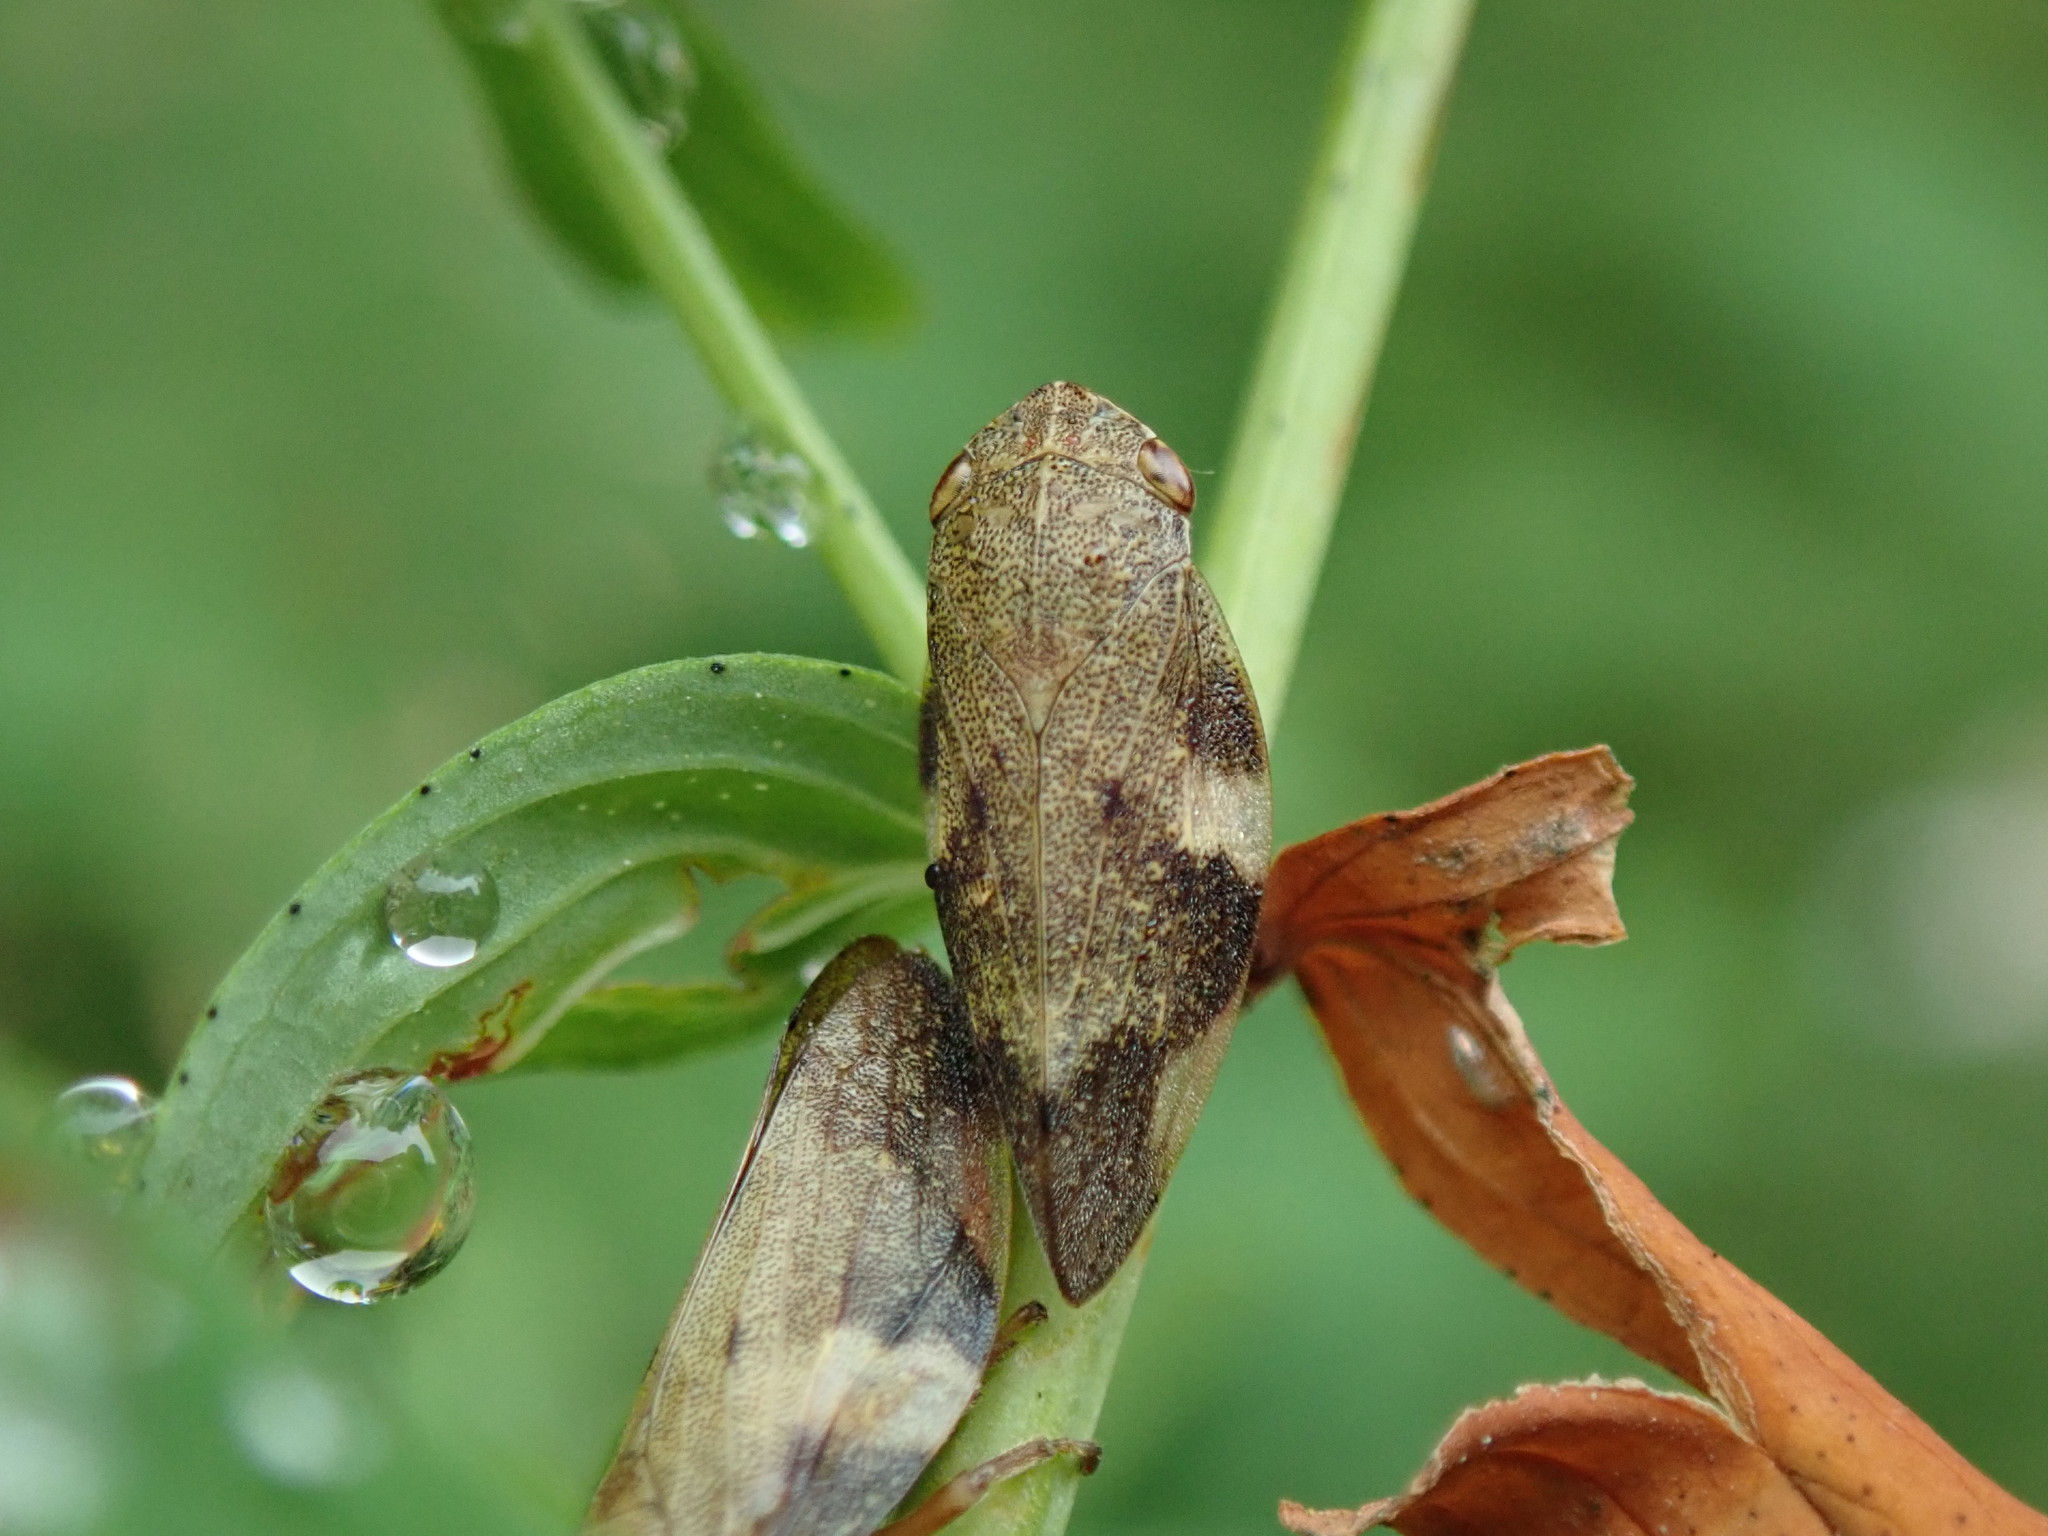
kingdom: Animalia
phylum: Arthropoda
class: Insecta
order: Hemiptera
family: Aphrophoridae
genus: Aphrophora
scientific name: Aphrophora alni
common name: European alder spittlebug
